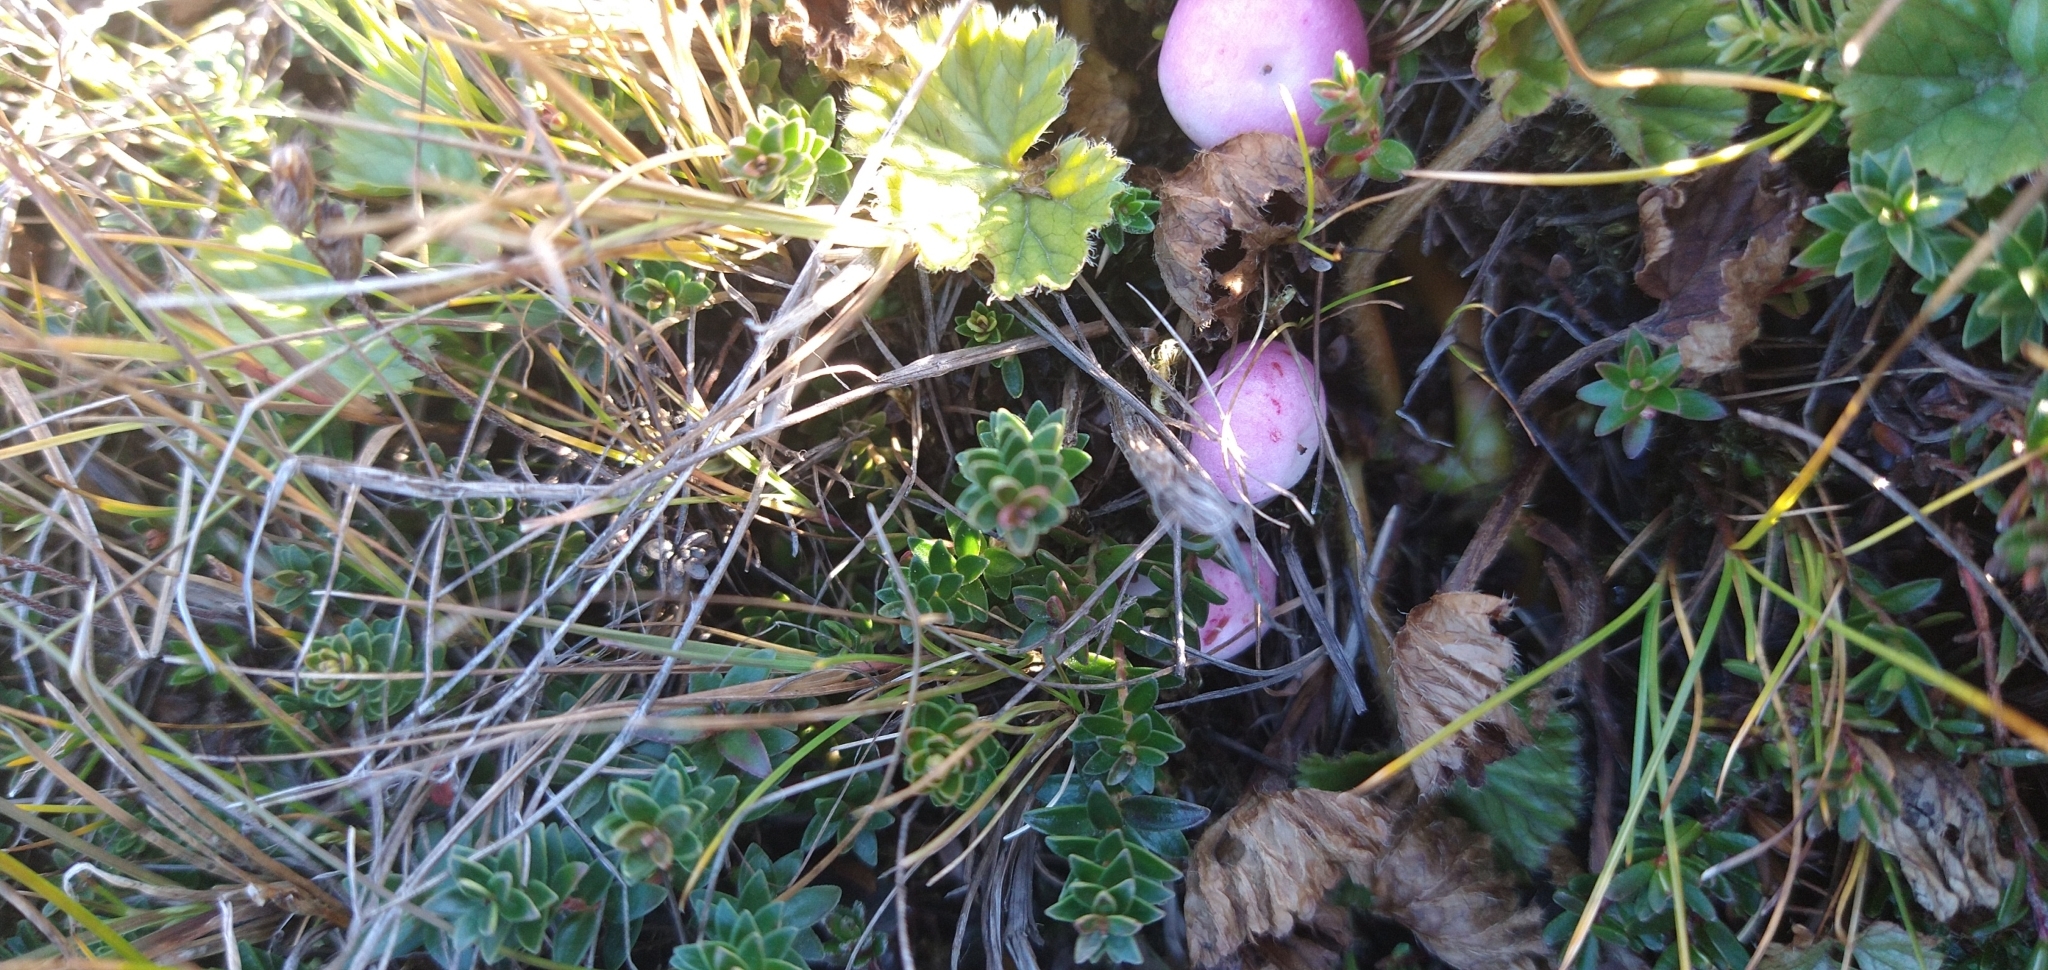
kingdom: Plantae
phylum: Tracheophyta
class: Magnoliopsida
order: Ericales
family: Ericaceae
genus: Gaultheria
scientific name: Gaultheria pumila
